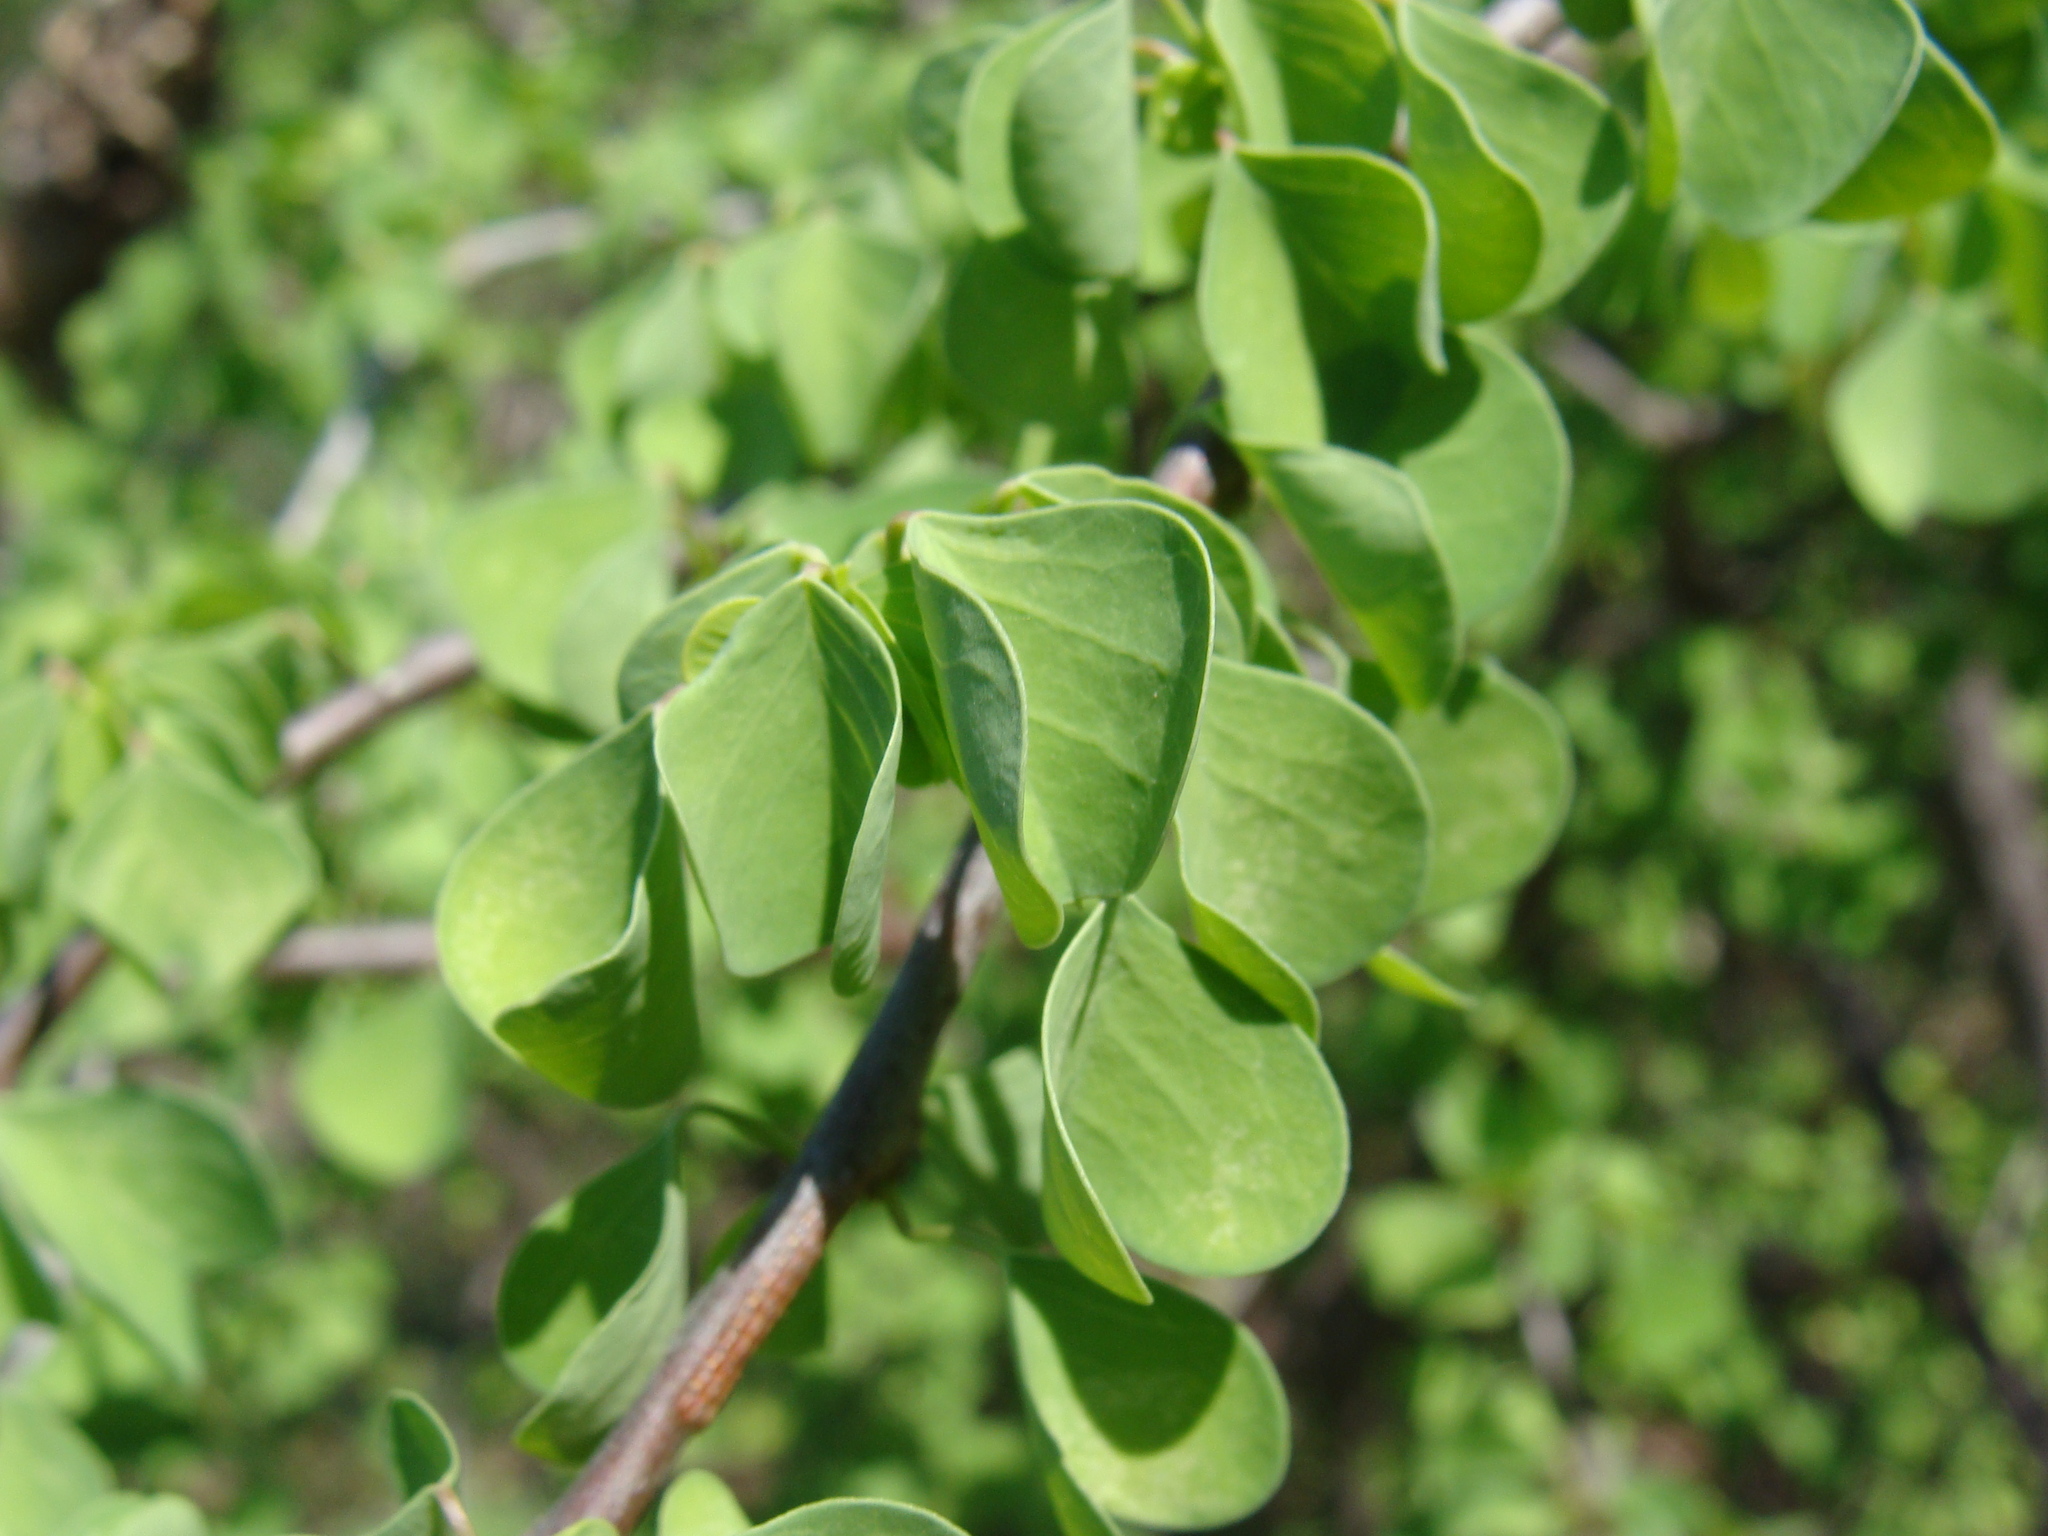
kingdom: Plantae
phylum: Tracheophyta
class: Magnoliopsida
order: Malpighiales
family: Euphorbiaceae
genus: Euphorbia
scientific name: Euphorbia californica
